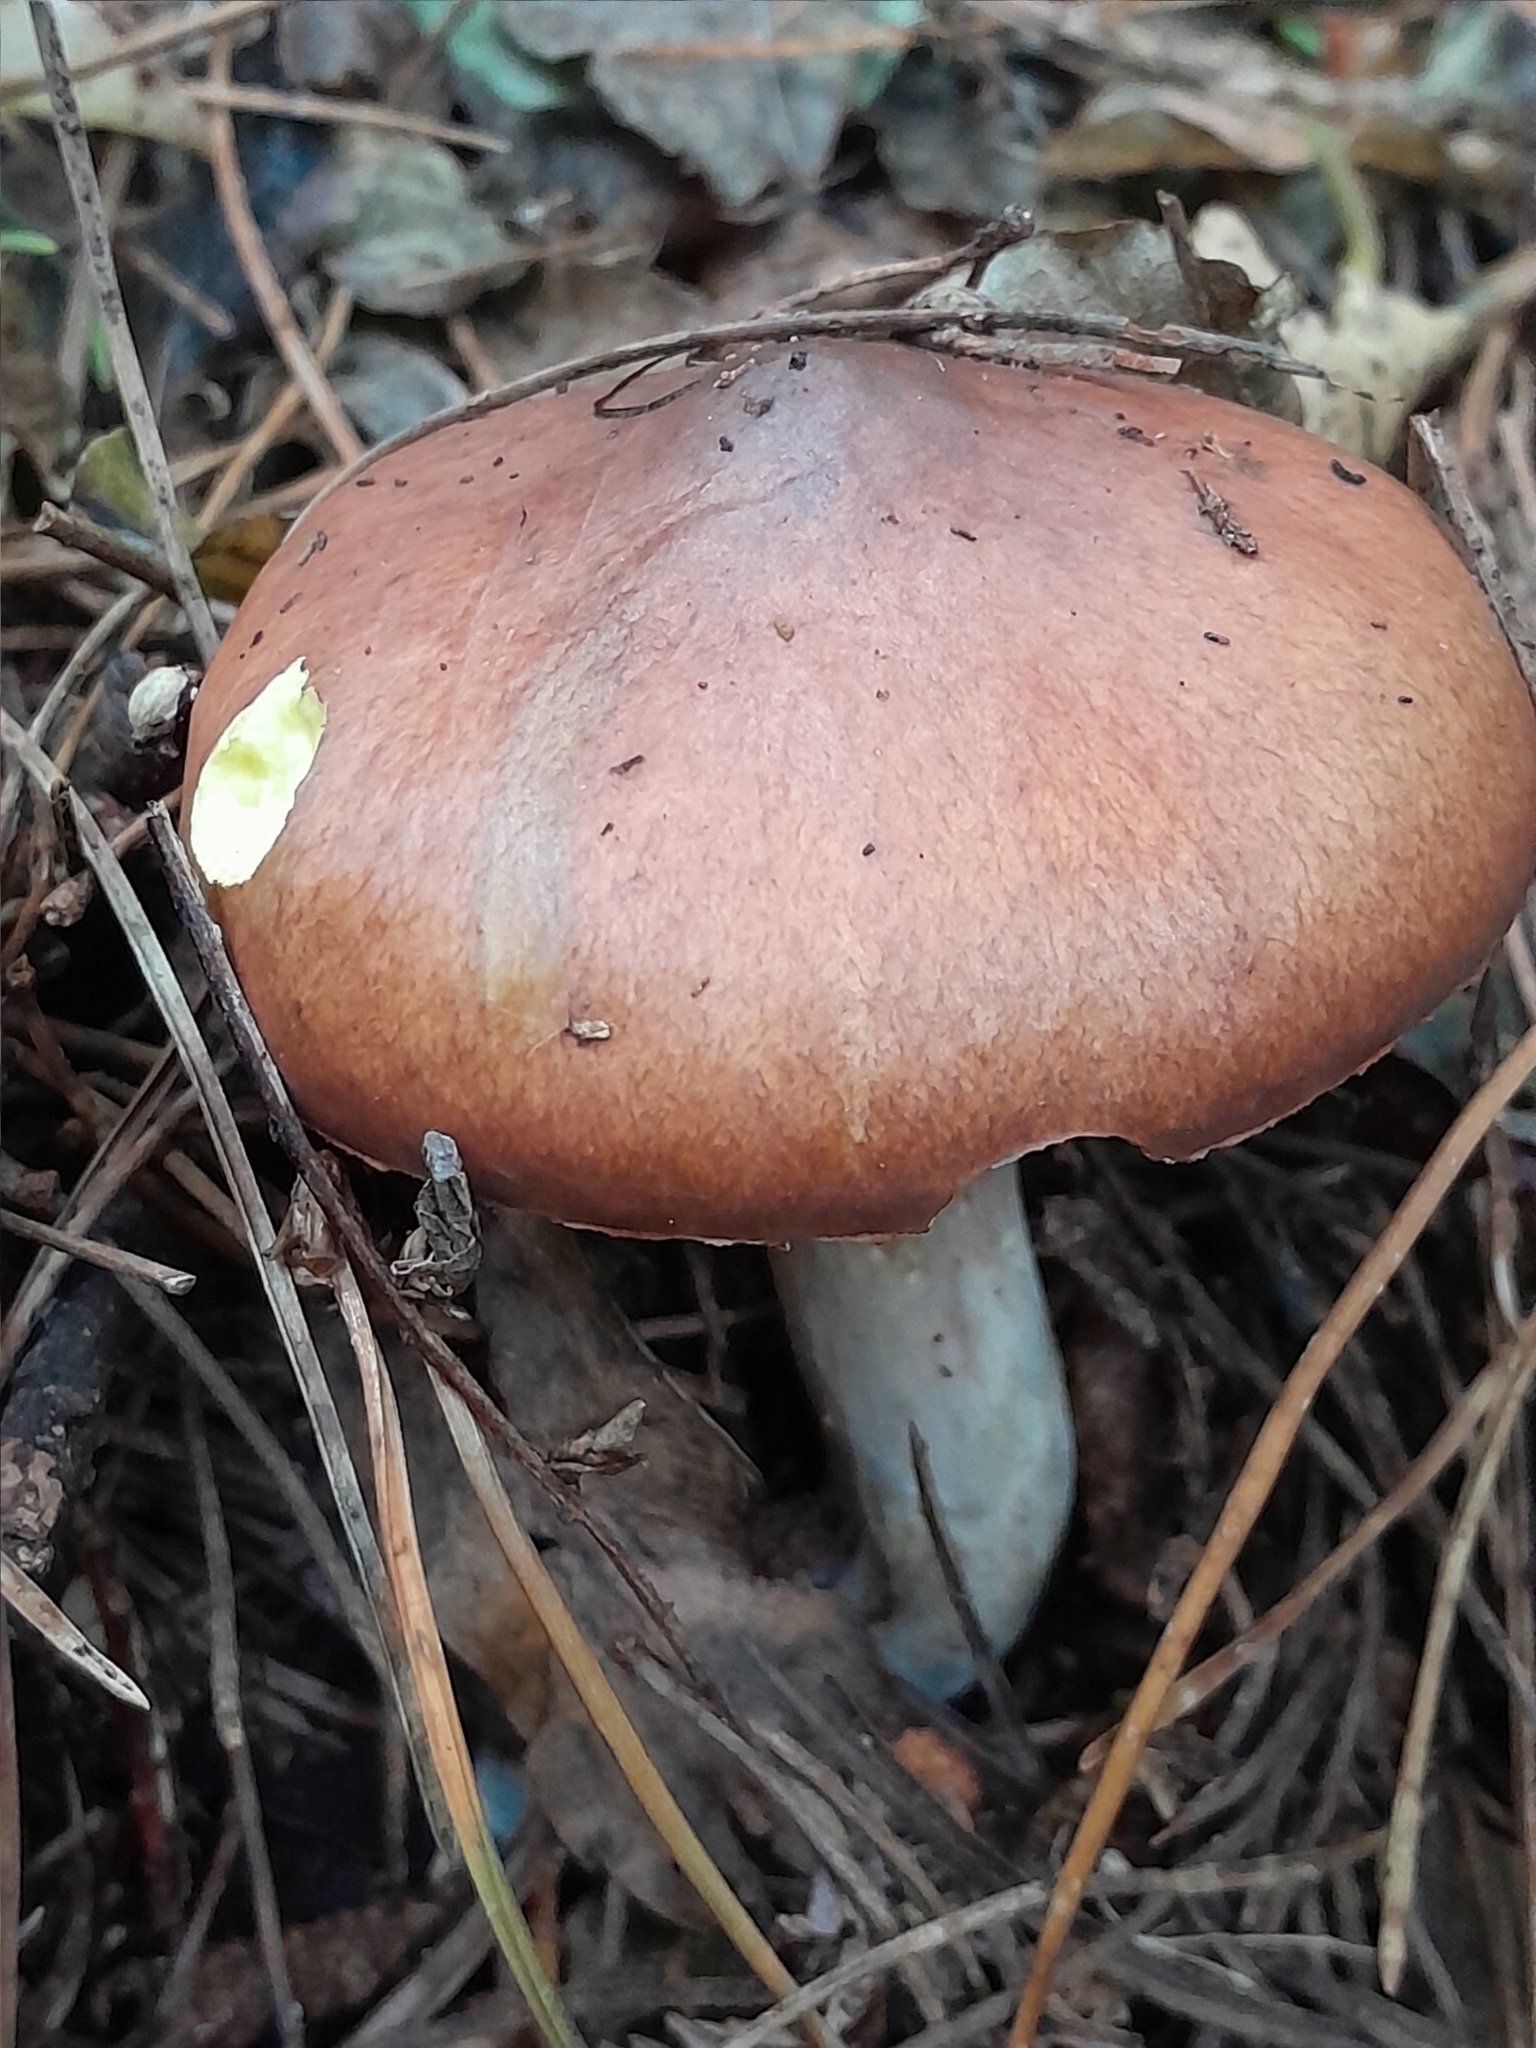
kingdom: Fungi
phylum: Basidiomycota
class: Agaricomycetes
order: Boletales
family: Suillaceae
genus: Suillus
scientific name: Suillus luteus
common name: Slippery jack
